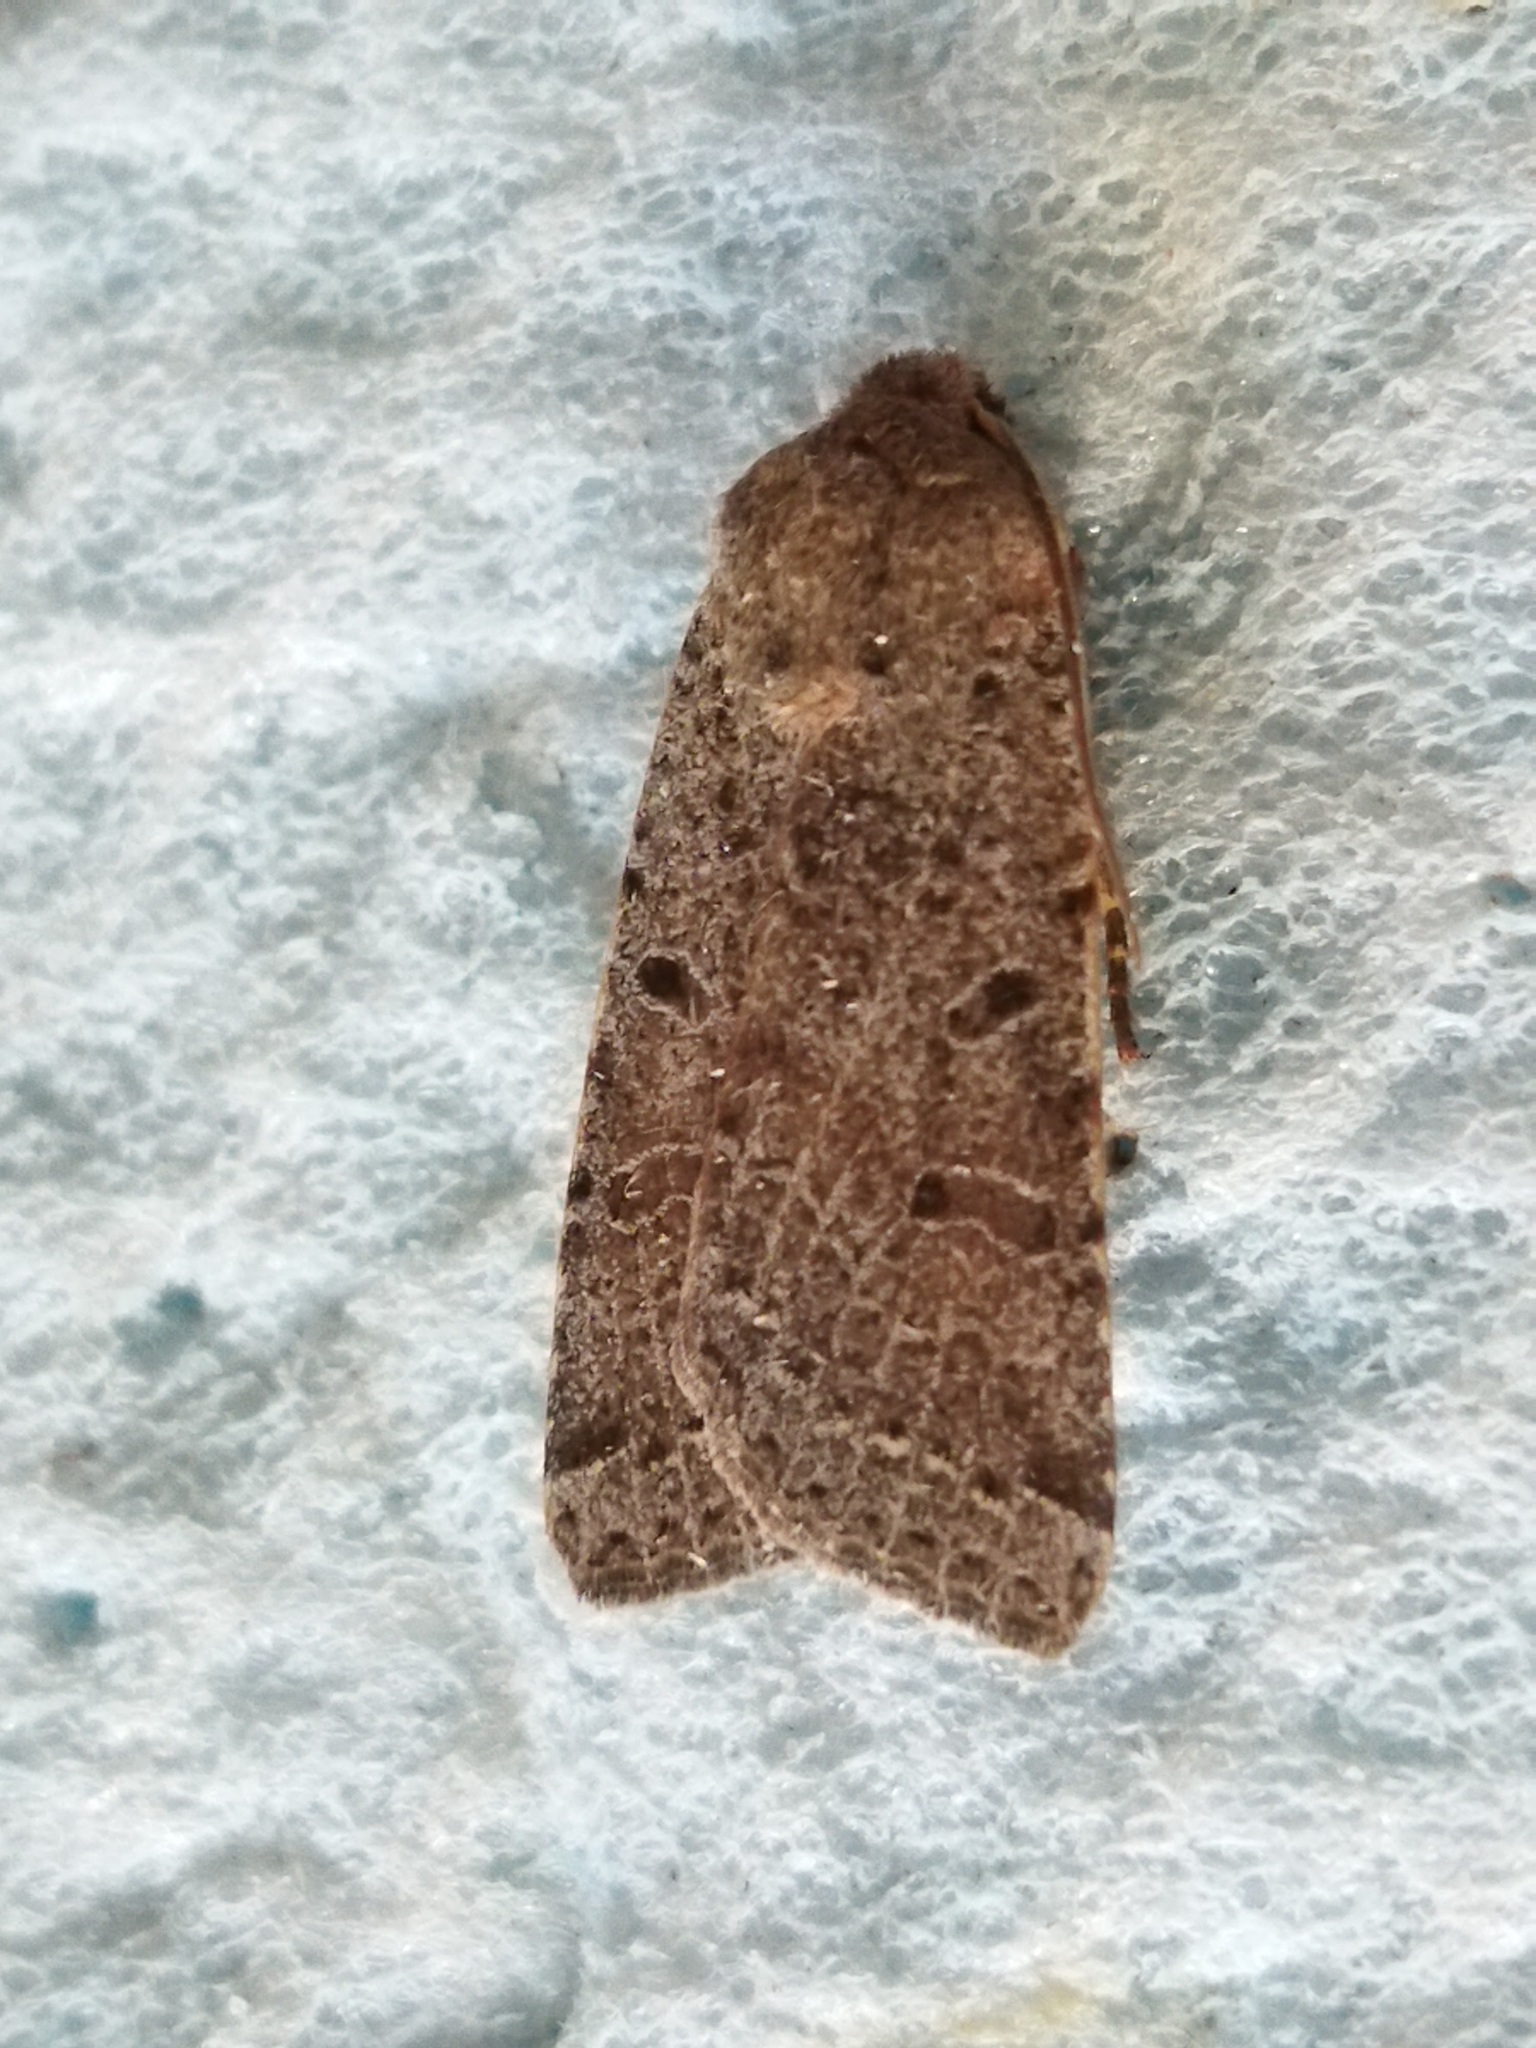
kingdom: Animalia
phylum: Arthropoda
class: Insecta
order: Lepidoptera
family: Noctuidae
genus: Agrochola
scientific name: Agrochola lychnidis
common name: Beaded chestnut
